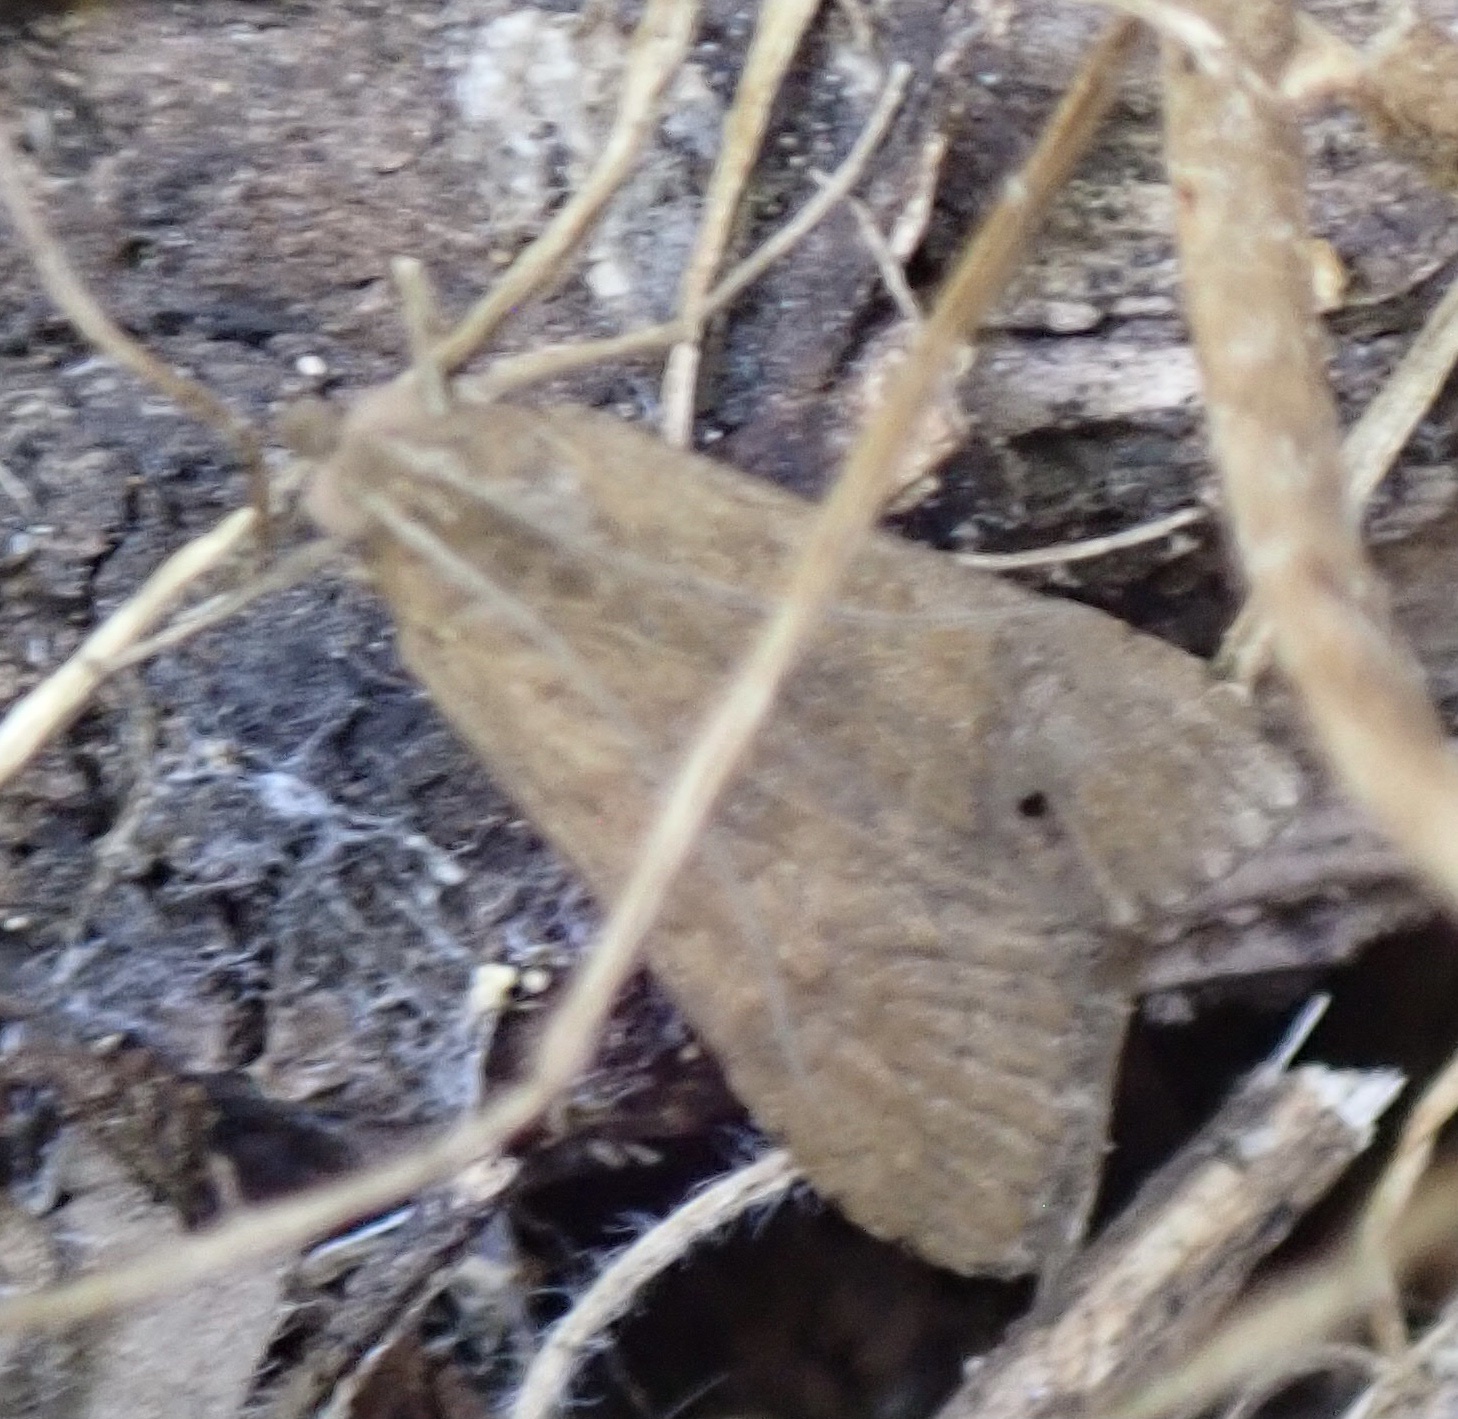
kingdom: Animalia
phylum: Arthropoda
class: Insecta
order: Lepidoptera
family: Crambidae
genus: Nomophila
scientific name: Nomophila noctuella
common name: Rush veneer
